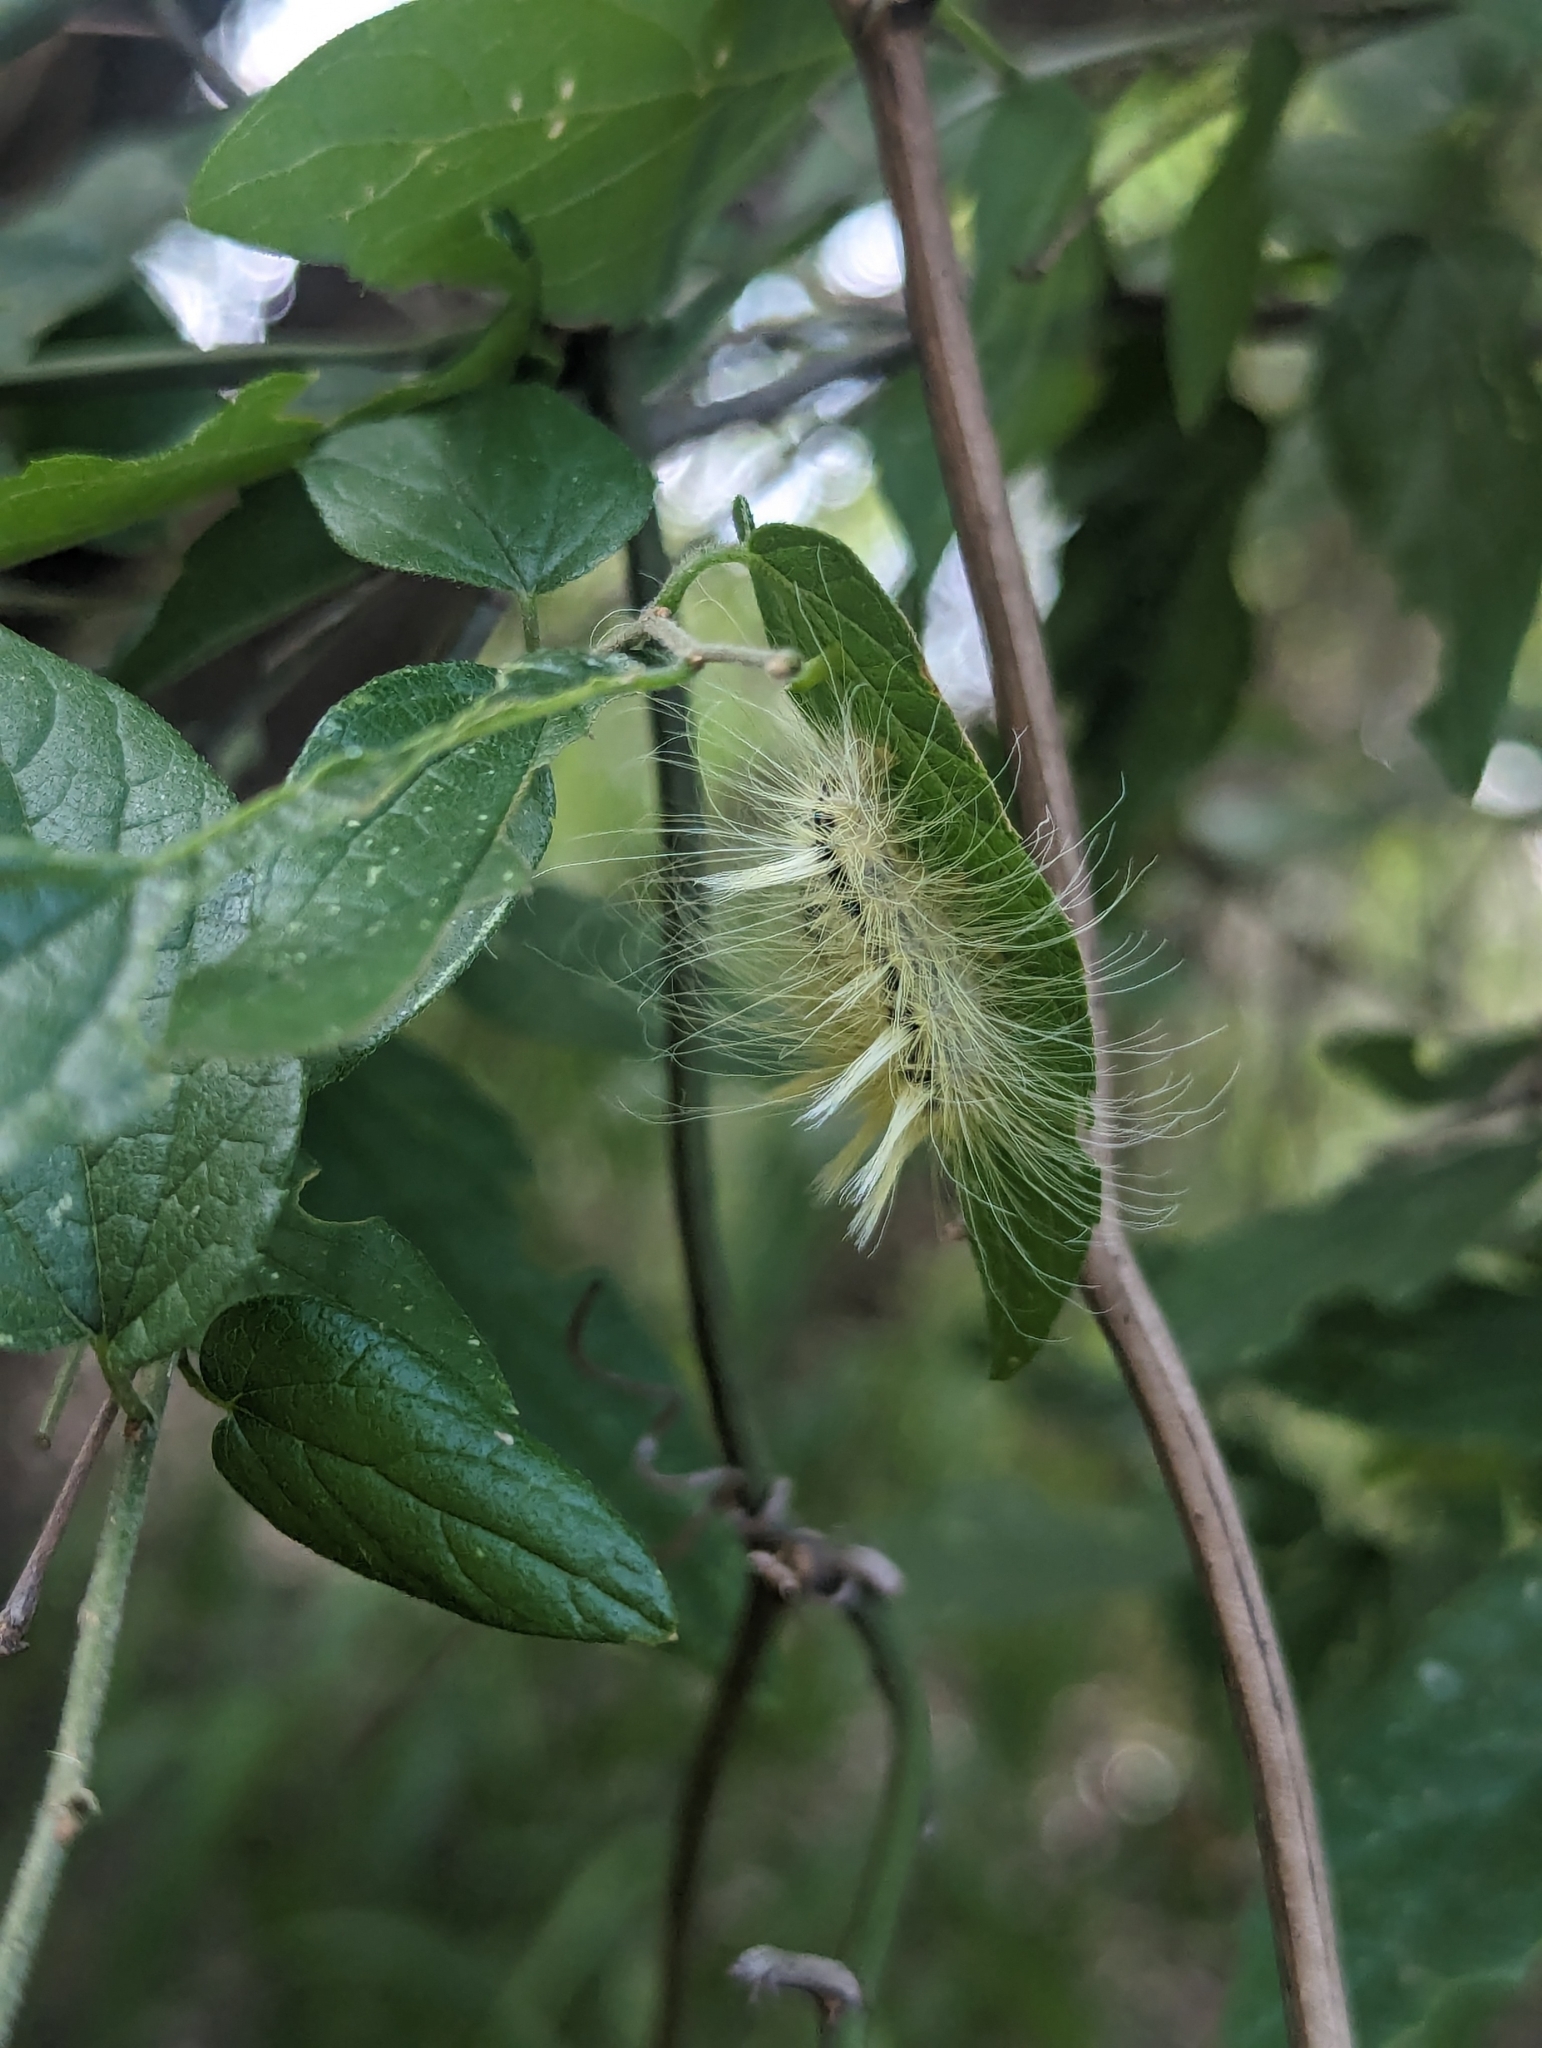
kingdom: Animalia
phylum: Arthropoda
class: Insecta
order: Lepidoptera
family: Noctuidae
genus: Acronicta
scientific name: Acronicta rubricoma
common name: Hackberry dagger
